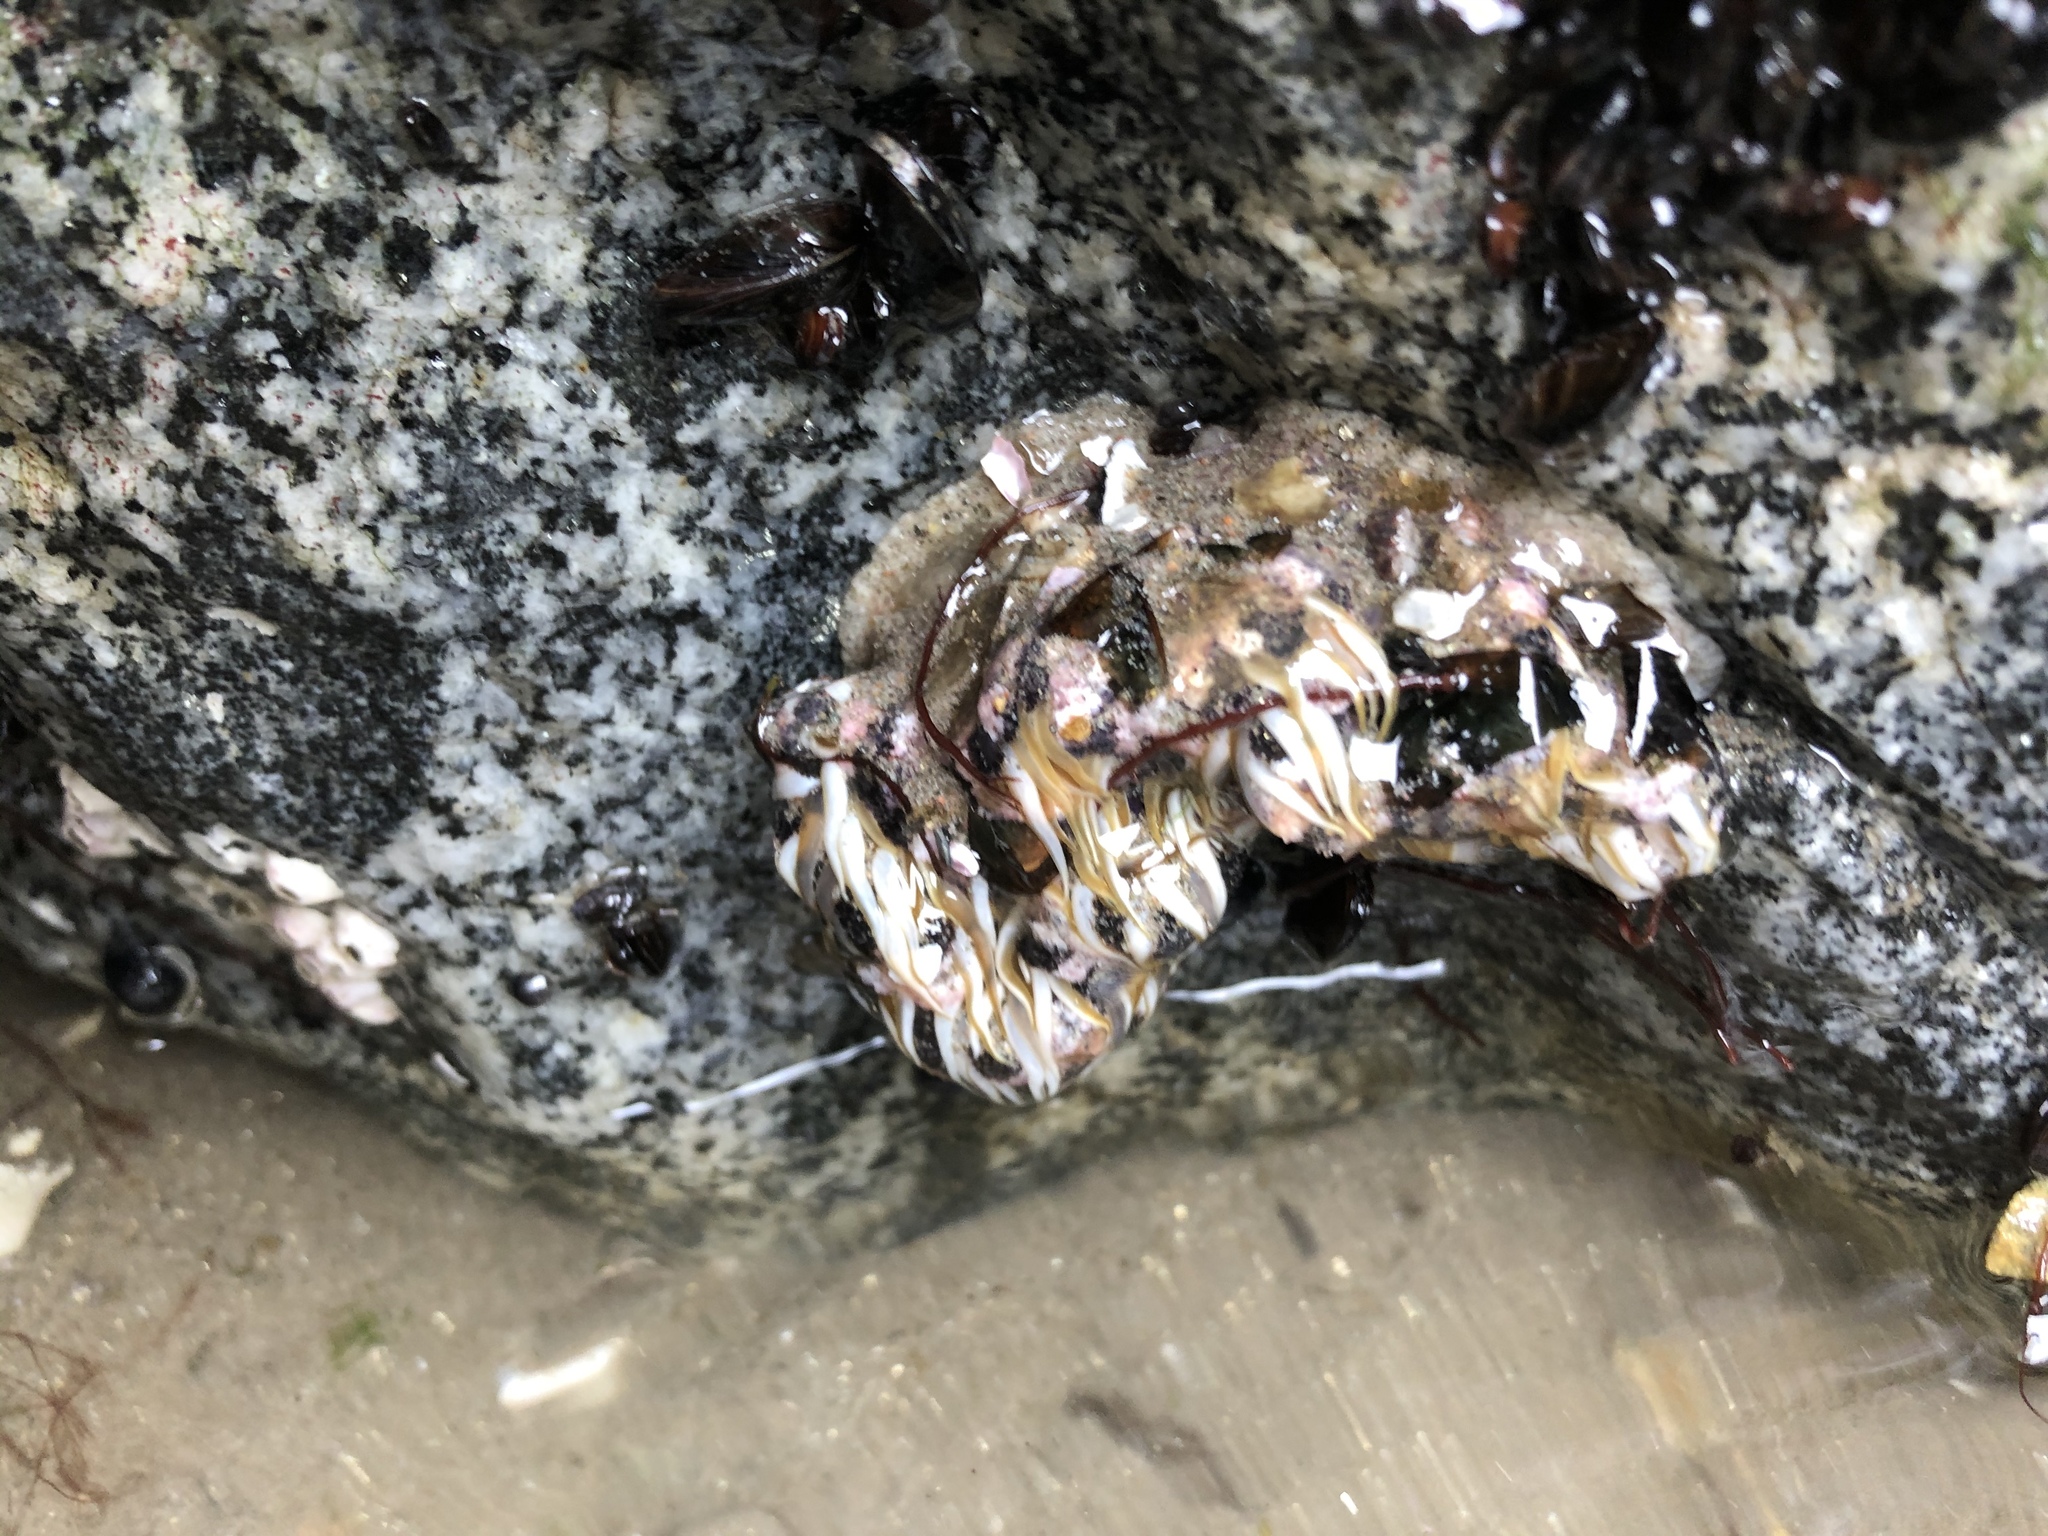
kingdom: Animalia
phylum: Cnidaria
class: Anthozoa
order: Actiniaria
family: Actiniidae
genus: Oulactis
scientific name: Oulactis concinnata
